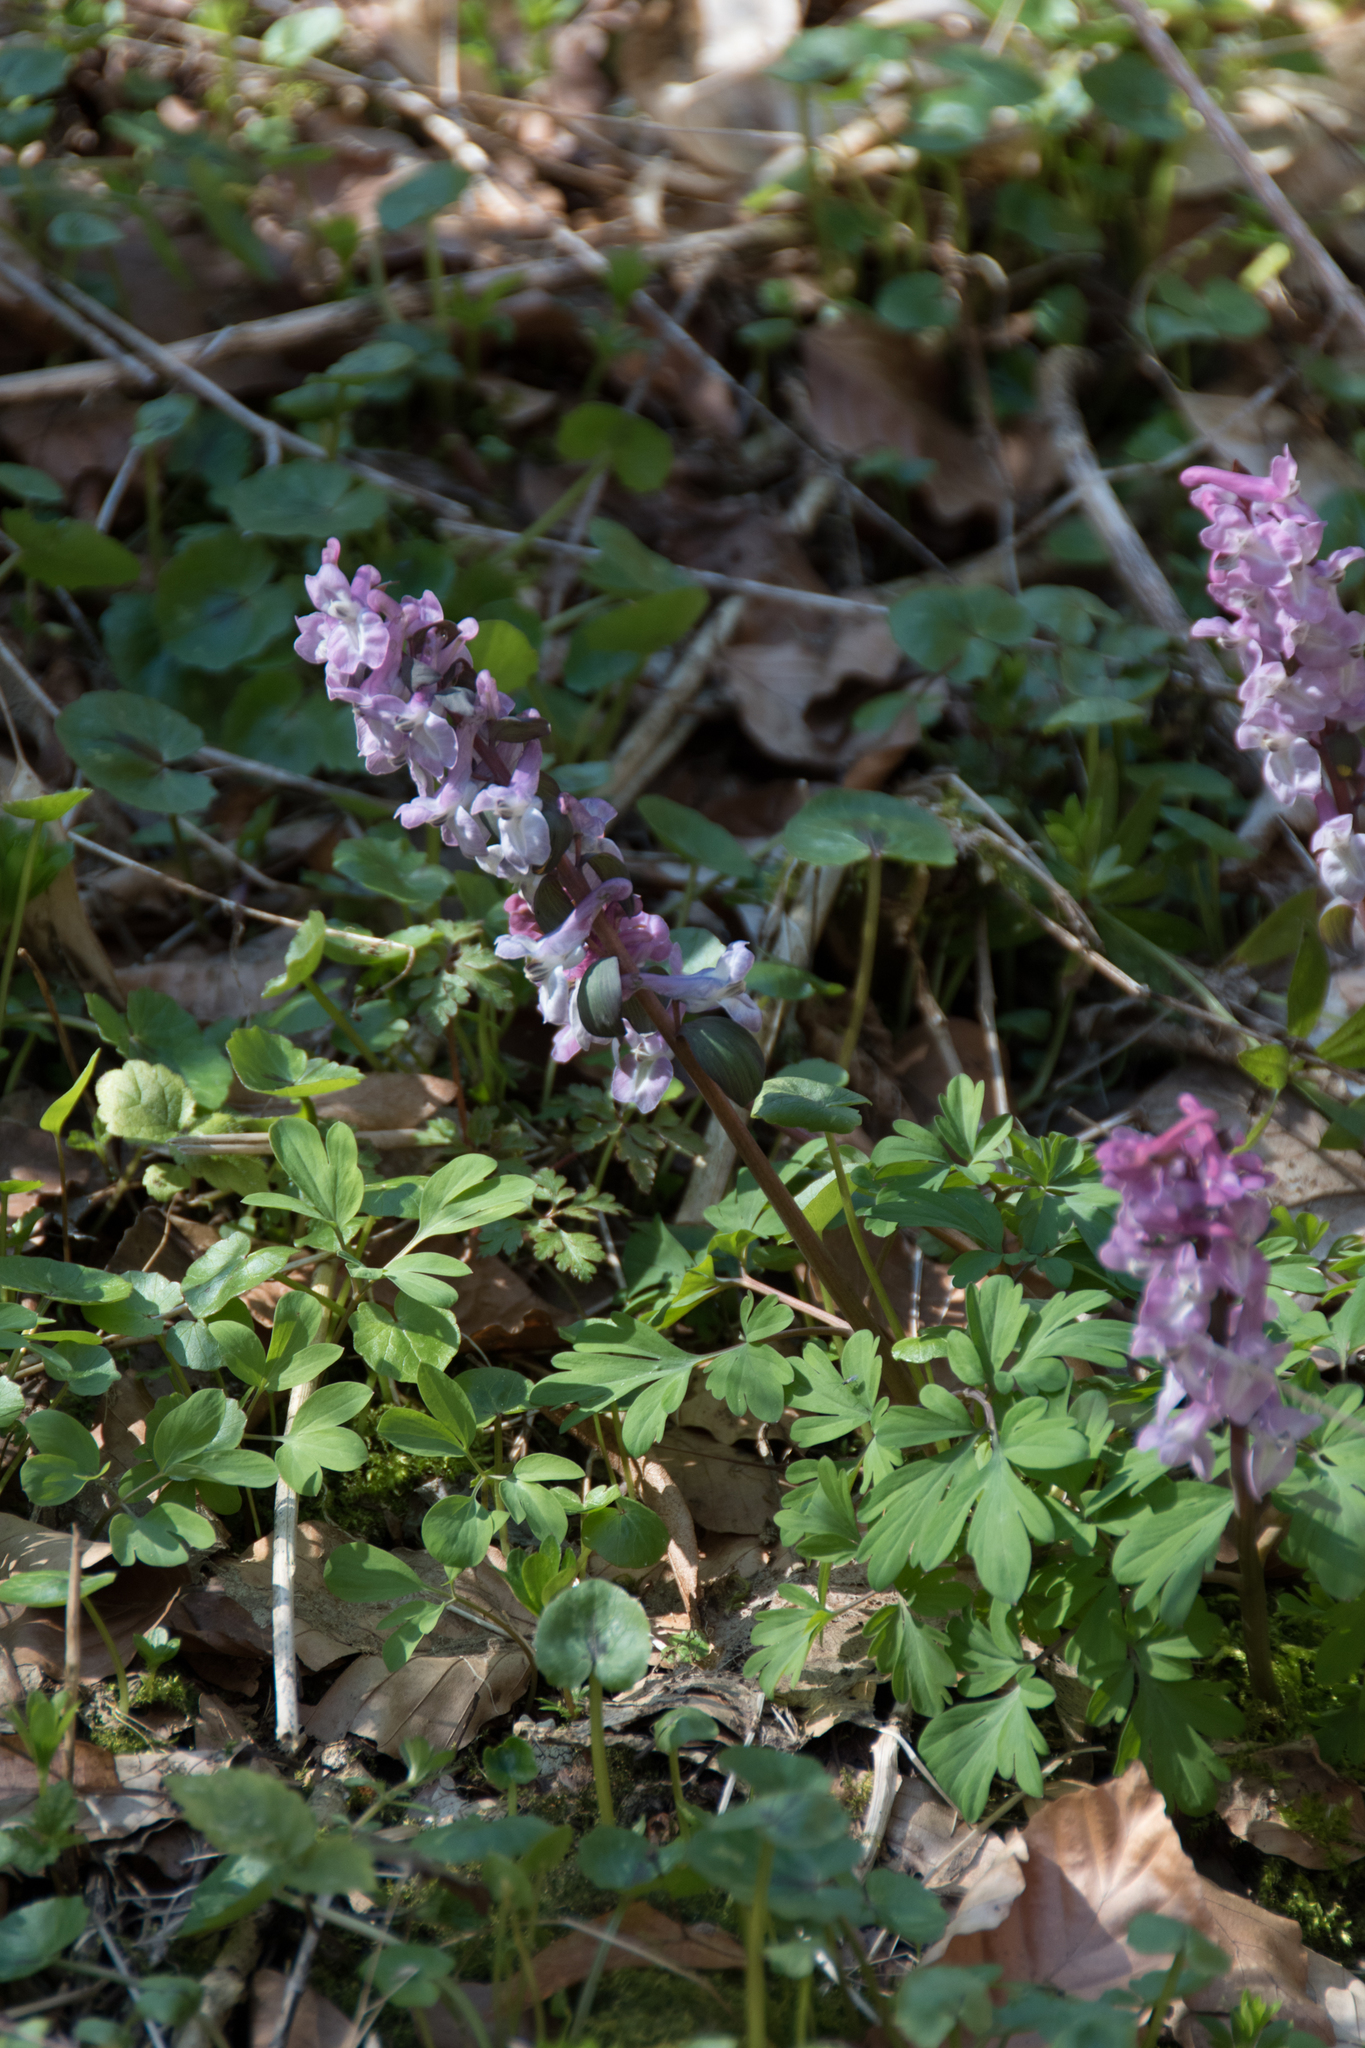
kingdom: Plantae
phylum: Tracheophyta
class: Magnoliopsida
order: Ranunculales
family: Papaveraceae
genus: Corydalis
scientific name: Corydalis cava
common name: Hollowroot
